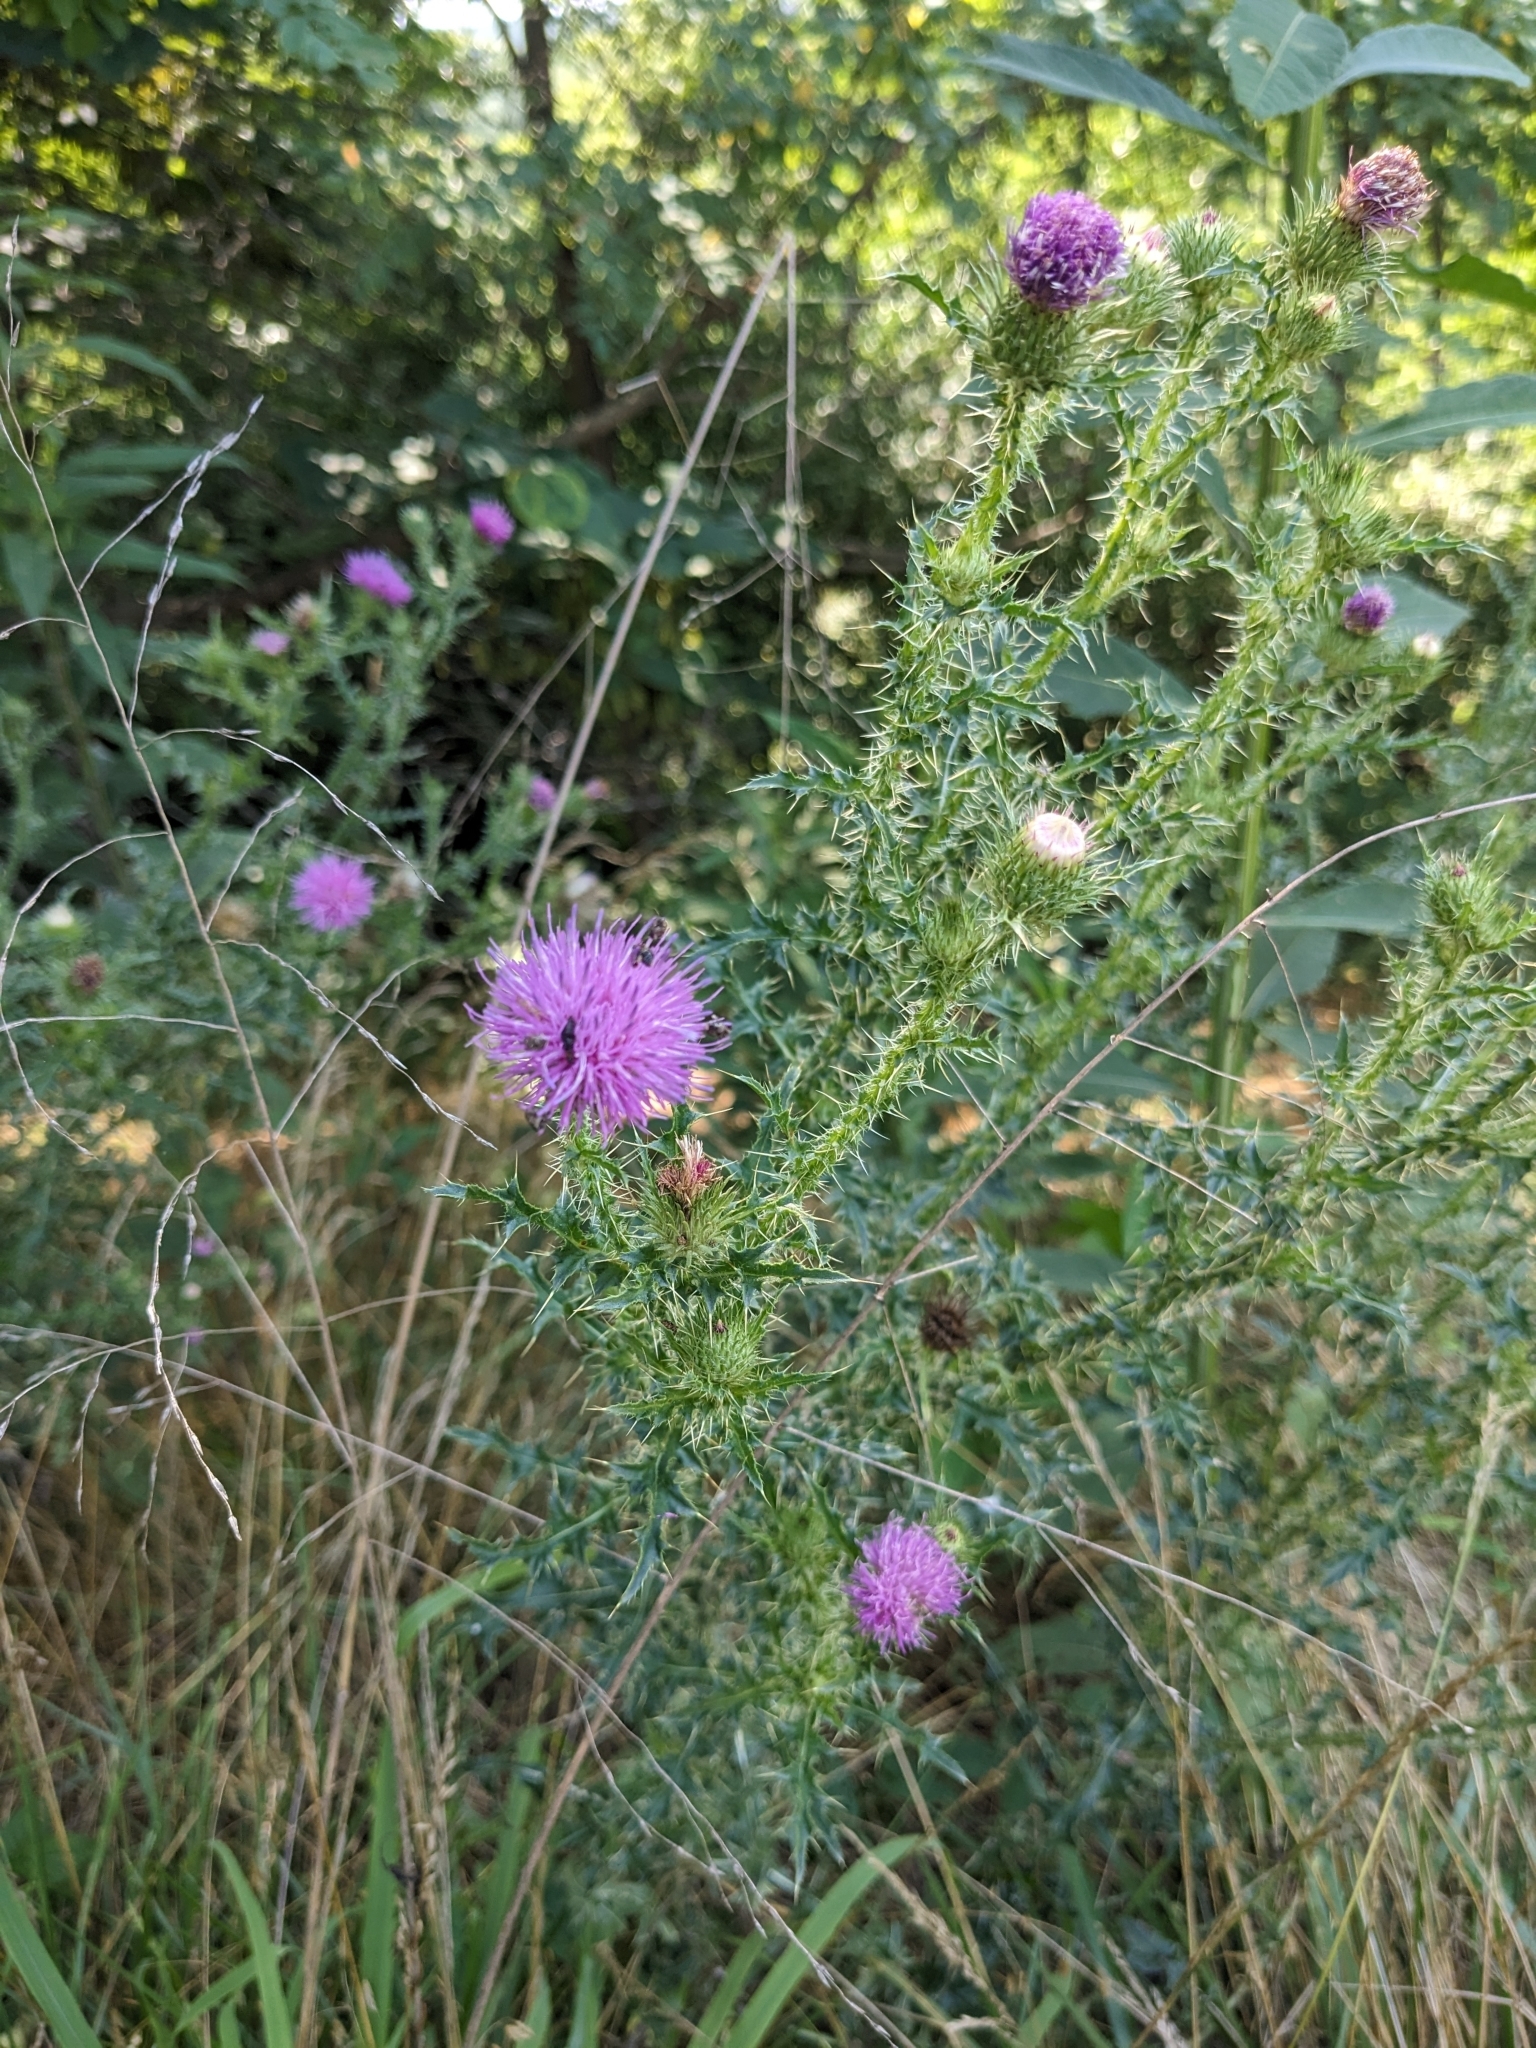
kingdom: Plantae
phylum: Tracheophyta
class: Magnoliopsida
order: Asterales
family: Asteraceae
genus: Carduus
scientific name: Carduus acanthoides
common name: Plumeless thistle
